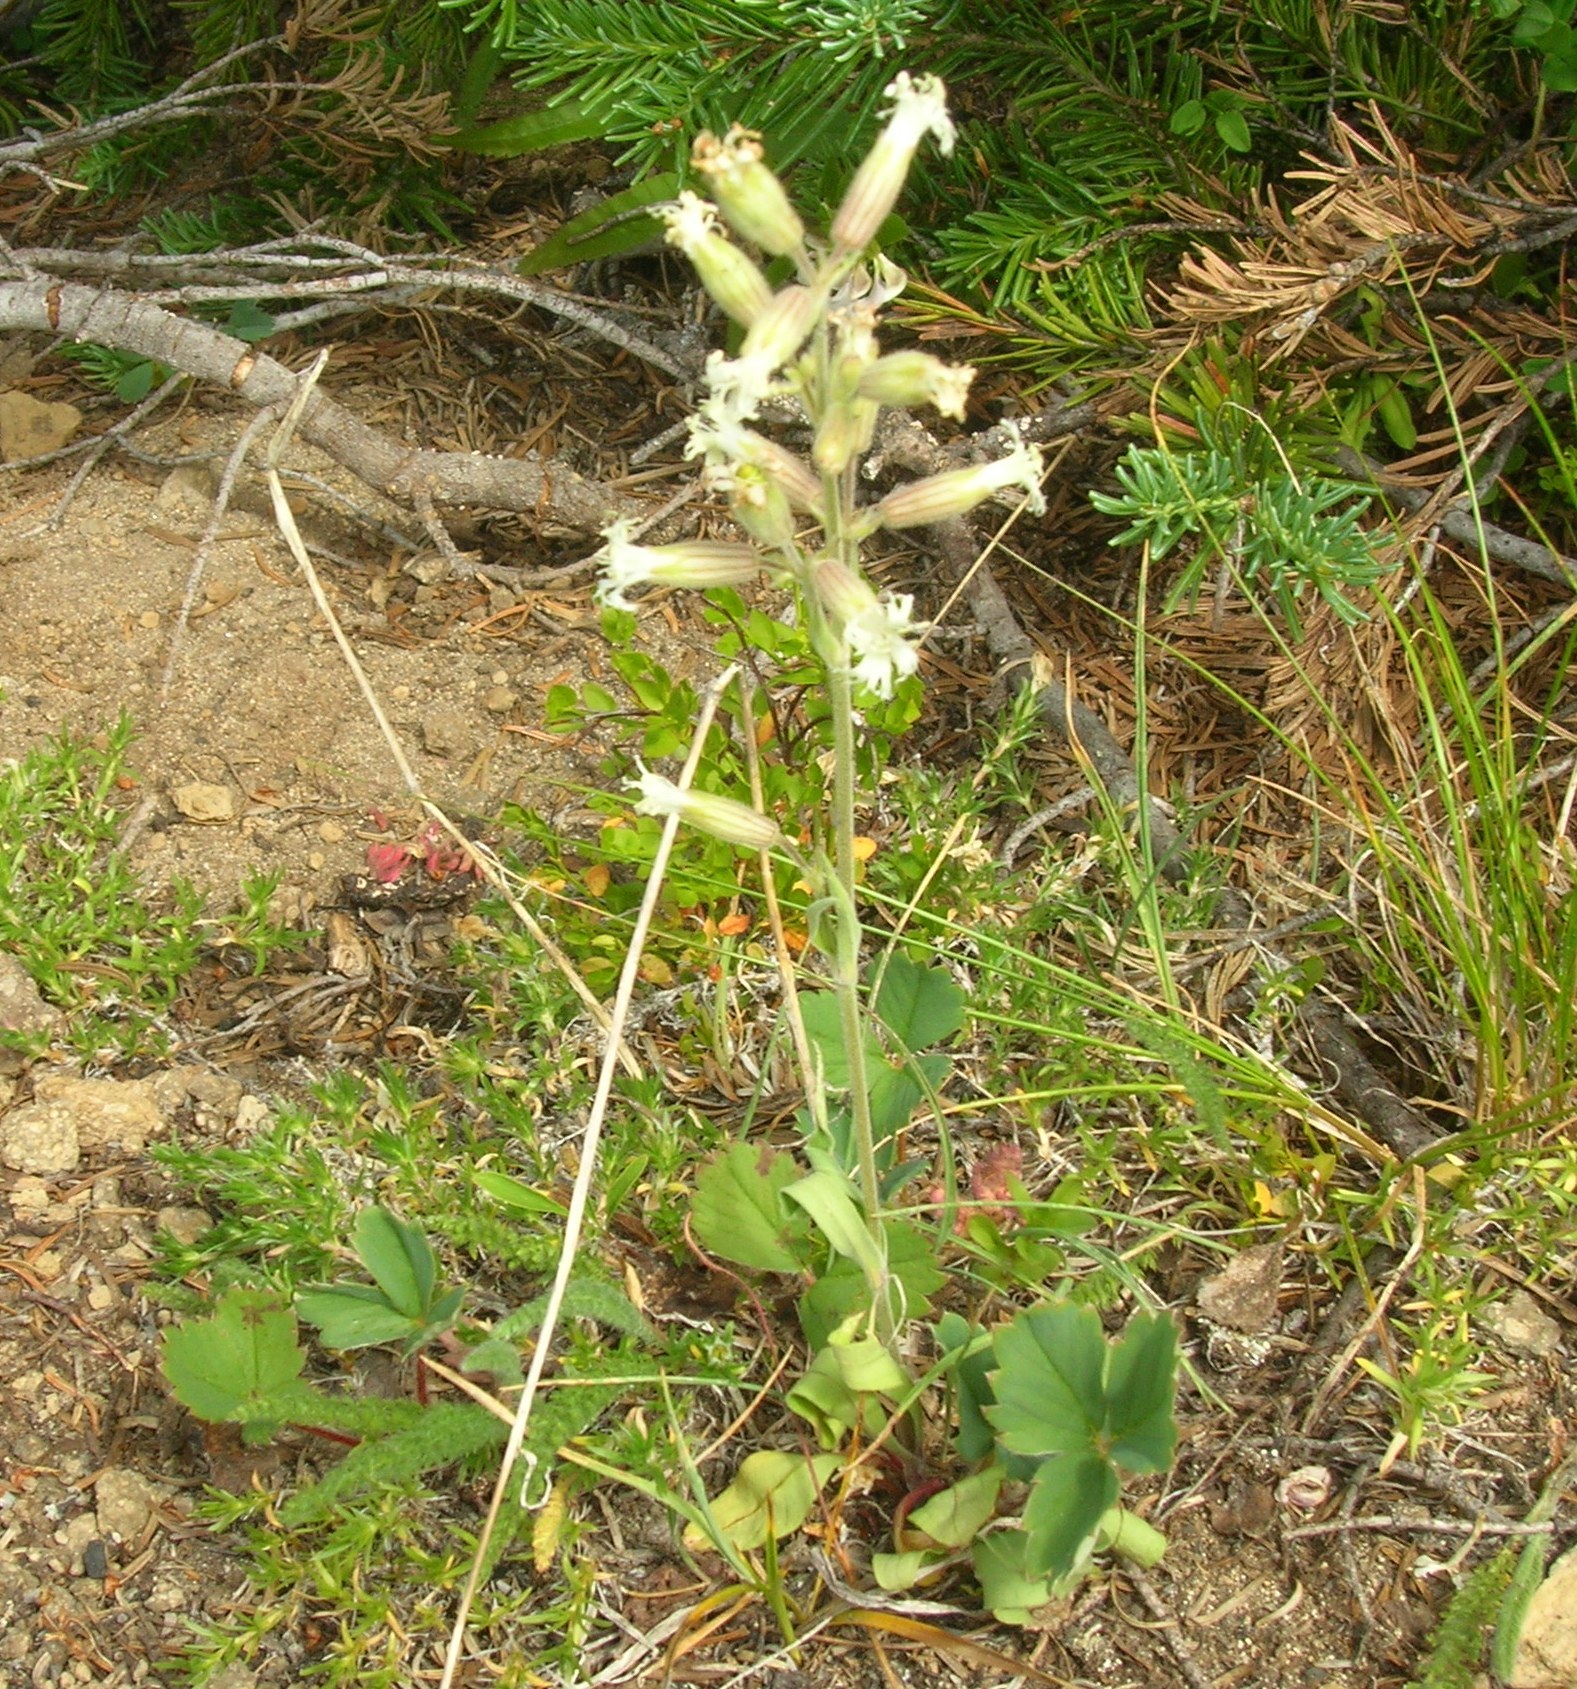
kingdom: Plantae
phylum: Tracheophyta
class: Magnoliopsida
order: Caryophyllales
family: Caryophyllaceae
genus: Silene
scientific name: Silene oregana
